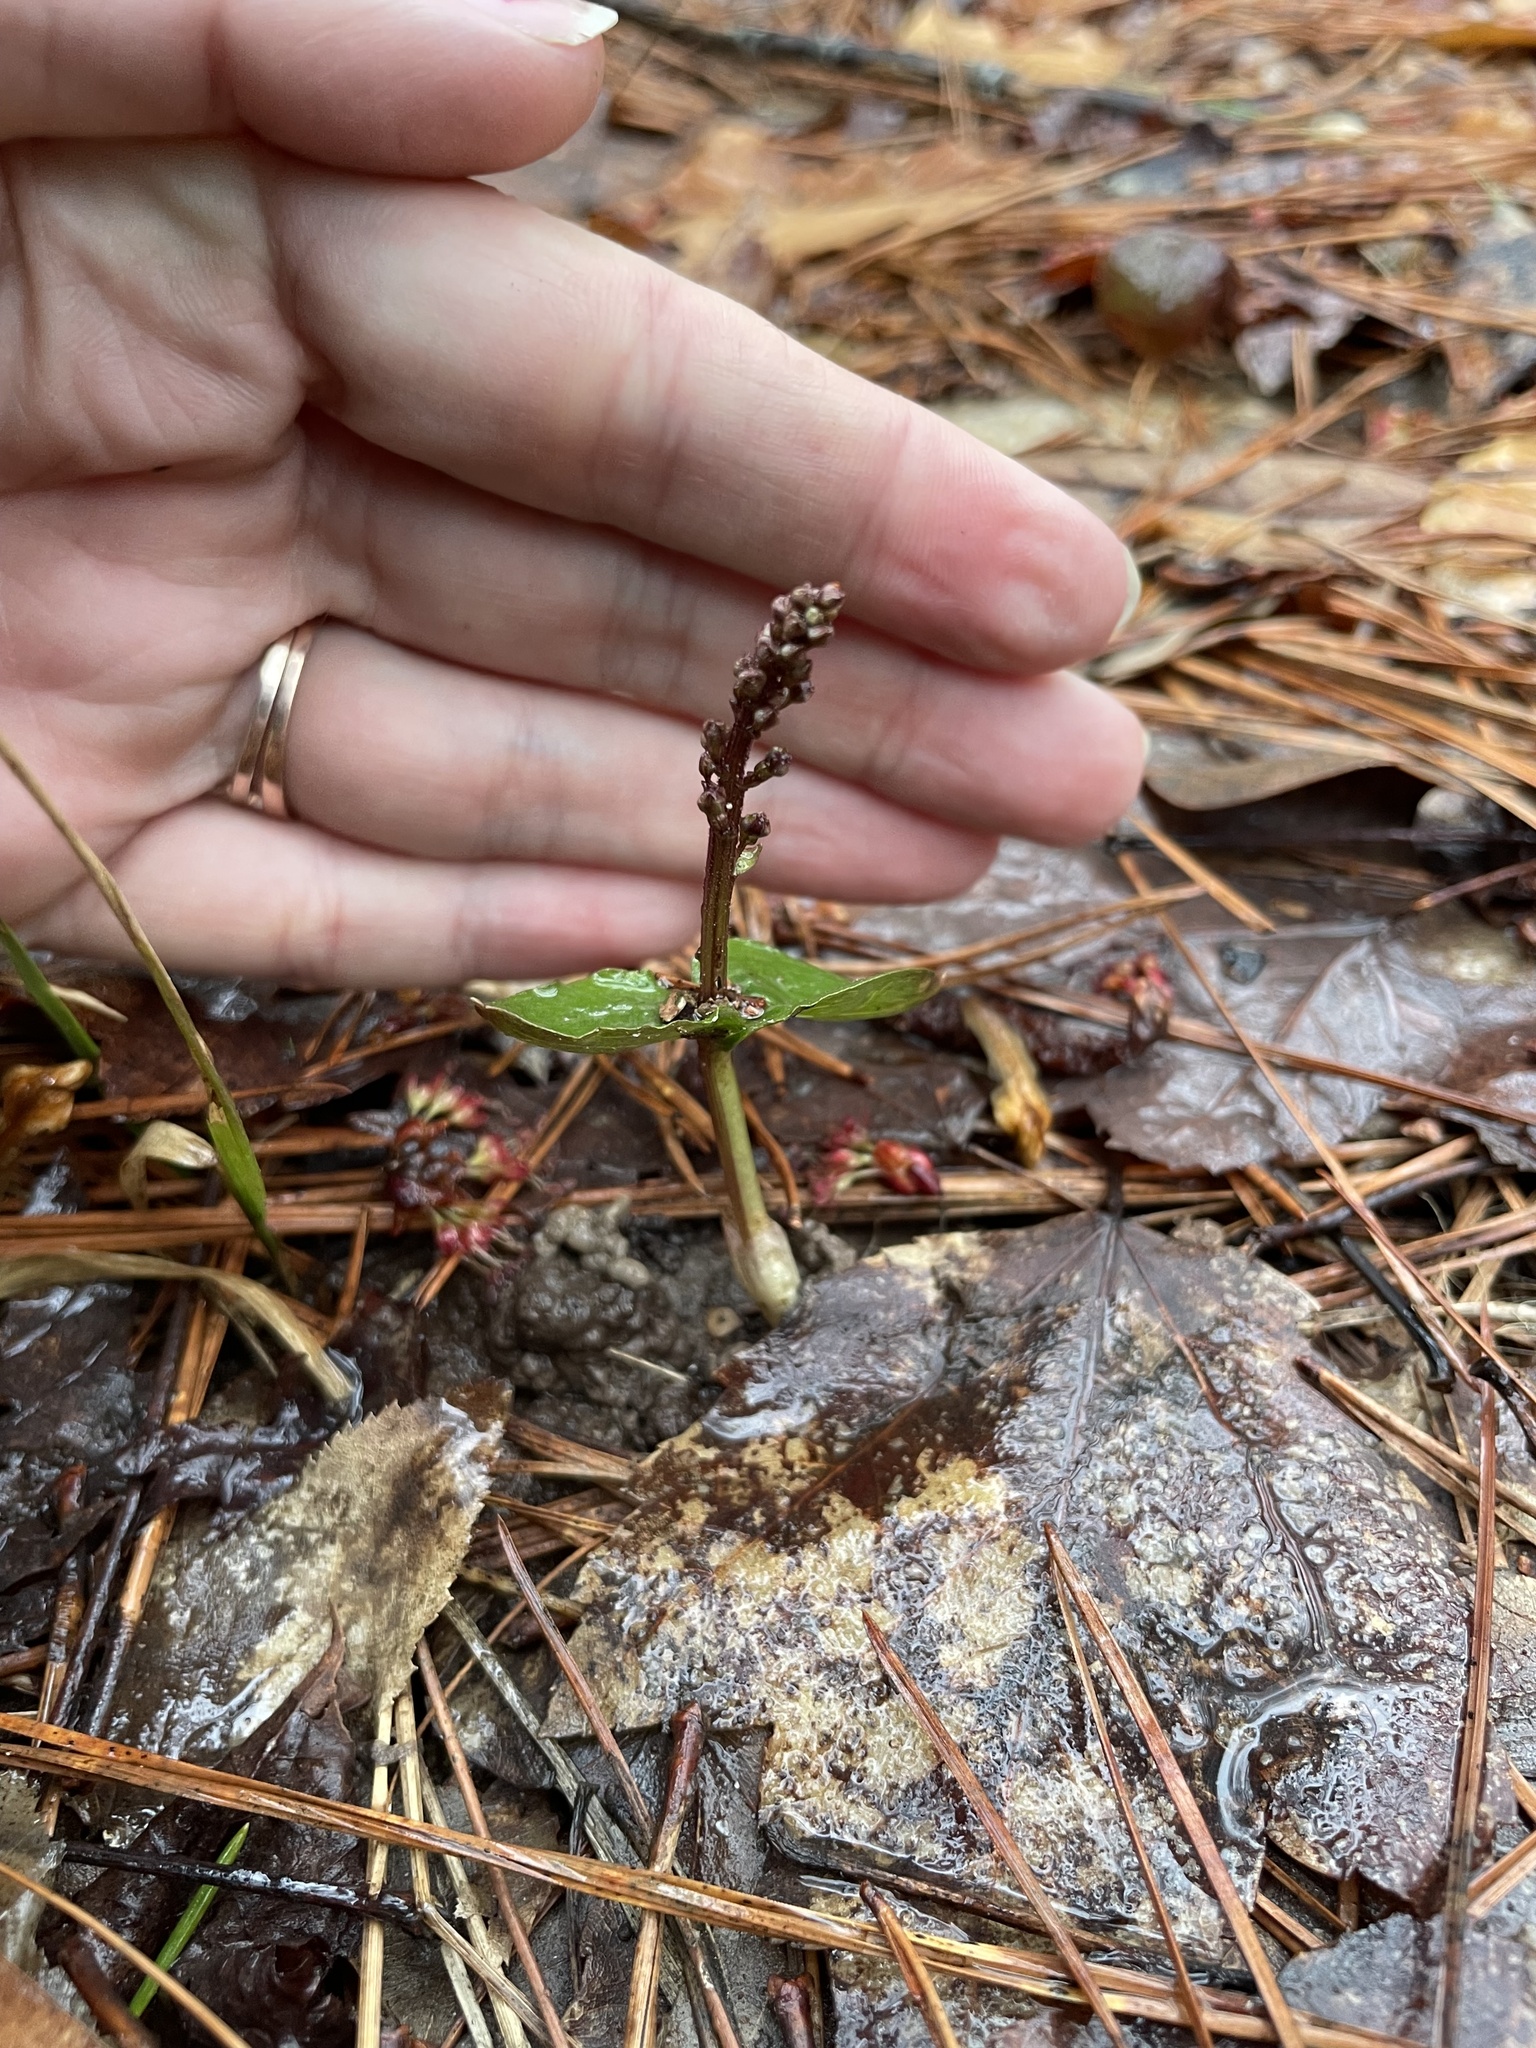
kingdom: Plantae
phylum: Tracheophyta
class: Liliopsida
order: Asparagales
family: Orchidaceae
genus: Neottia
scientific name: Neottia bifolia
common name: Southern twayblade
